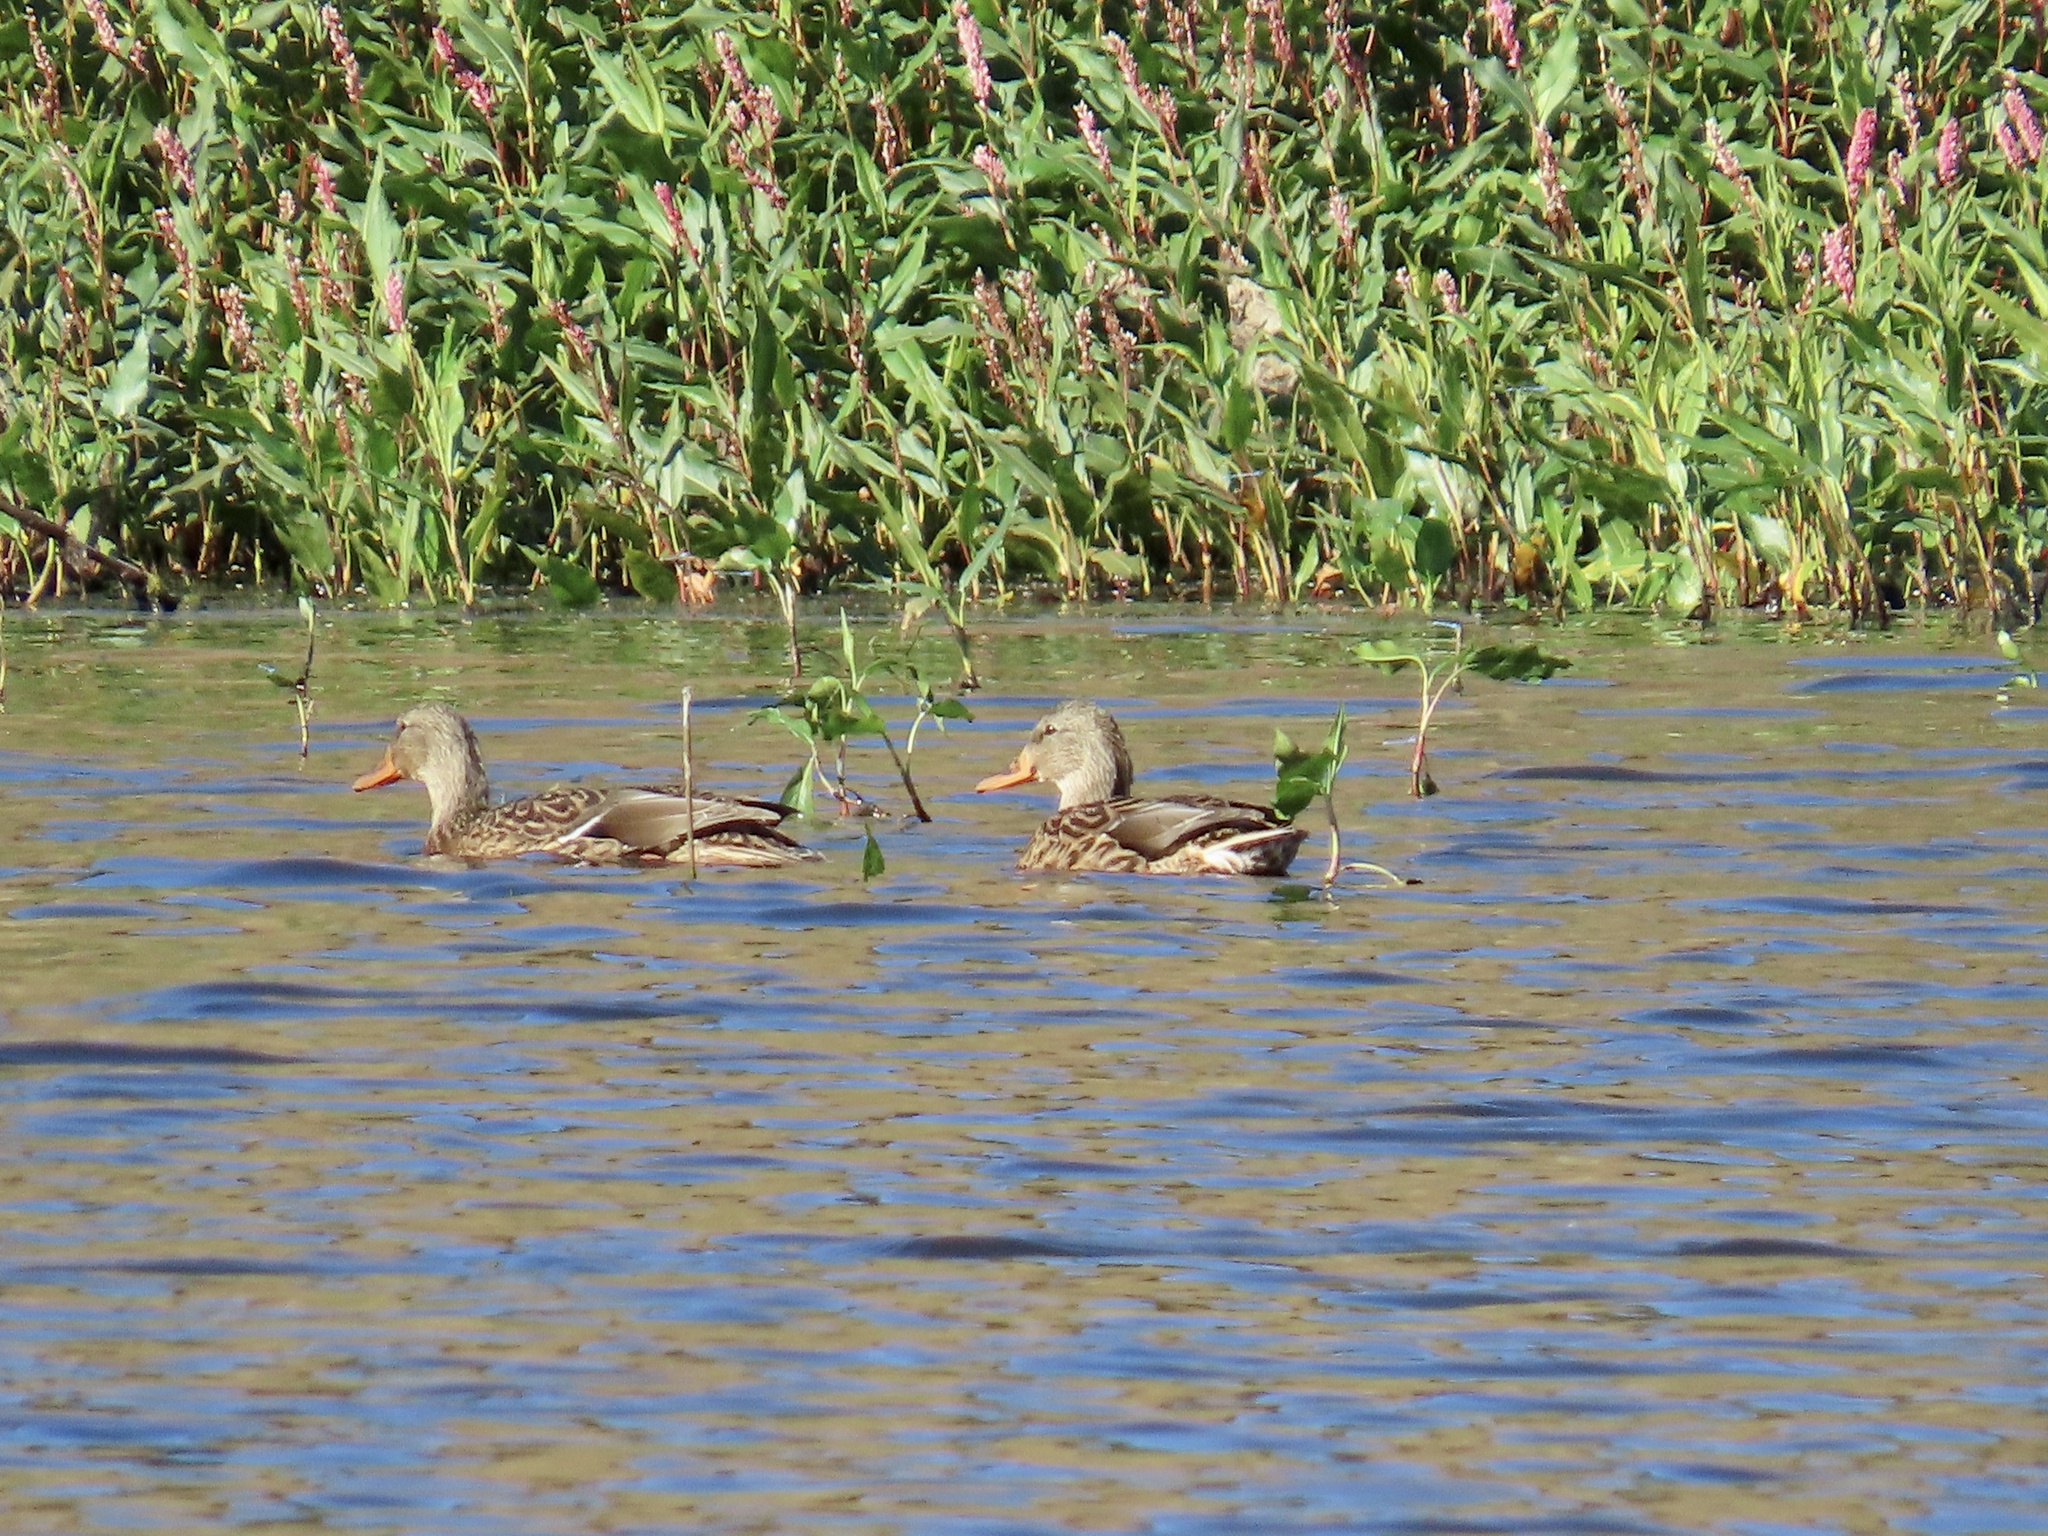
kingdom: Animalia
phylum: Chordata
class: Aves
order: Anseriformes
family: Anatidae
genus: Anas
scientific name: Anas platyrhynchos
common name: Mallard
